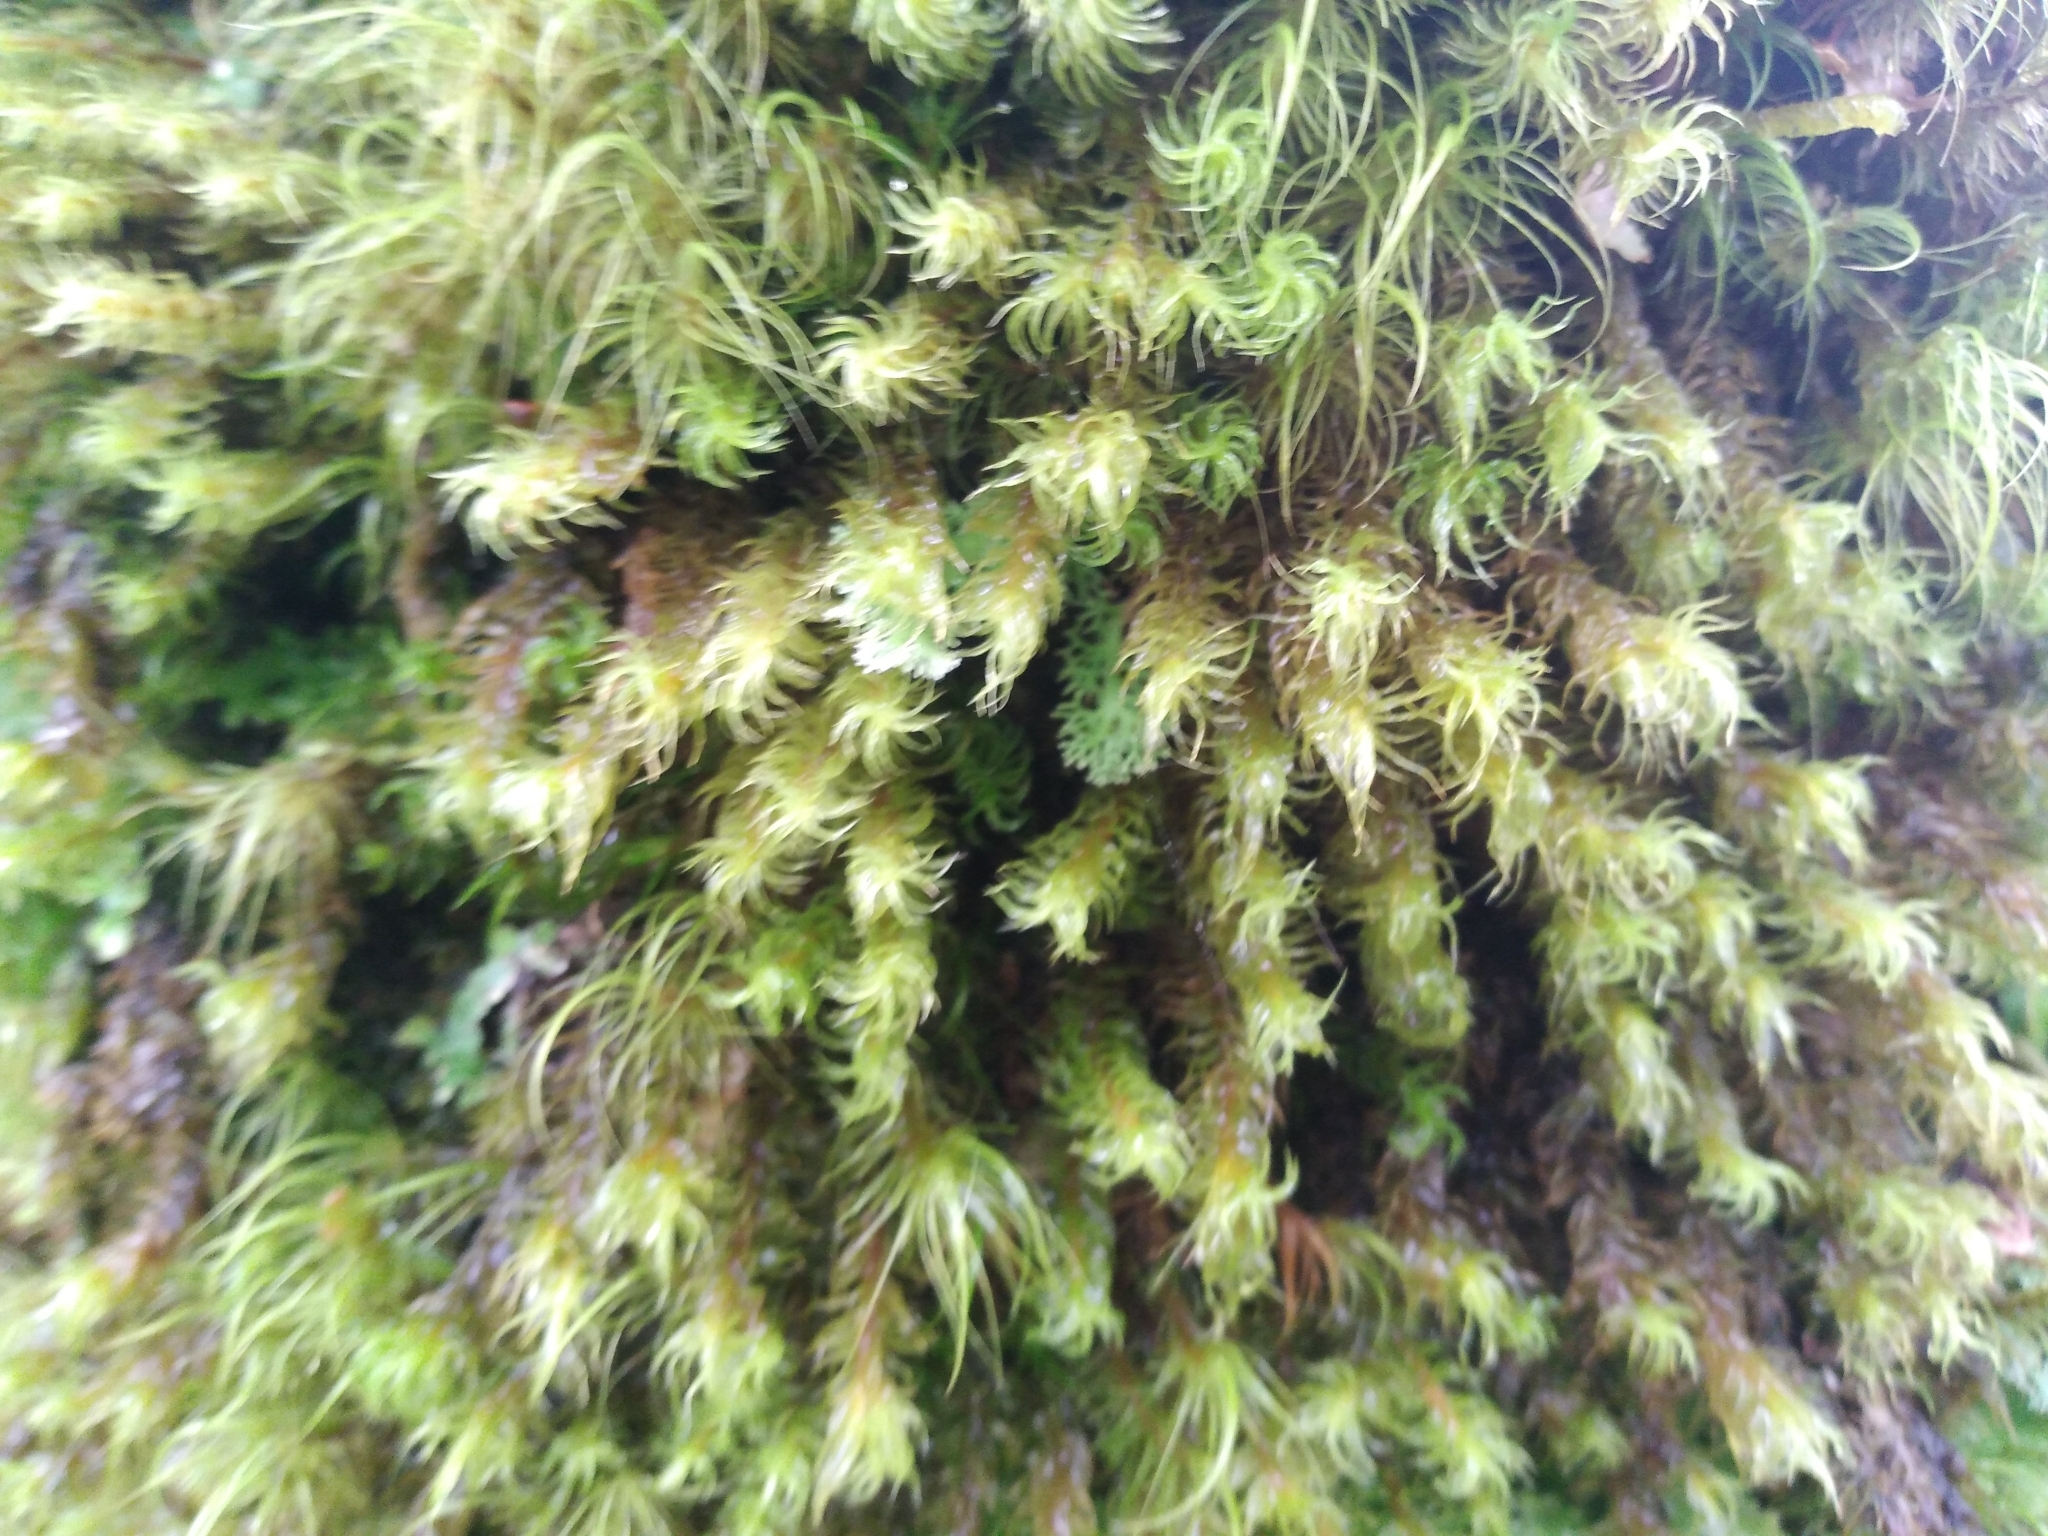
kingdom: Plantae
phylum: Bryophyta
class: Bryopsida
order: Dicranales
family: Dicranaceae
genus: Mesotus
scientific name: Mesotus celatus
